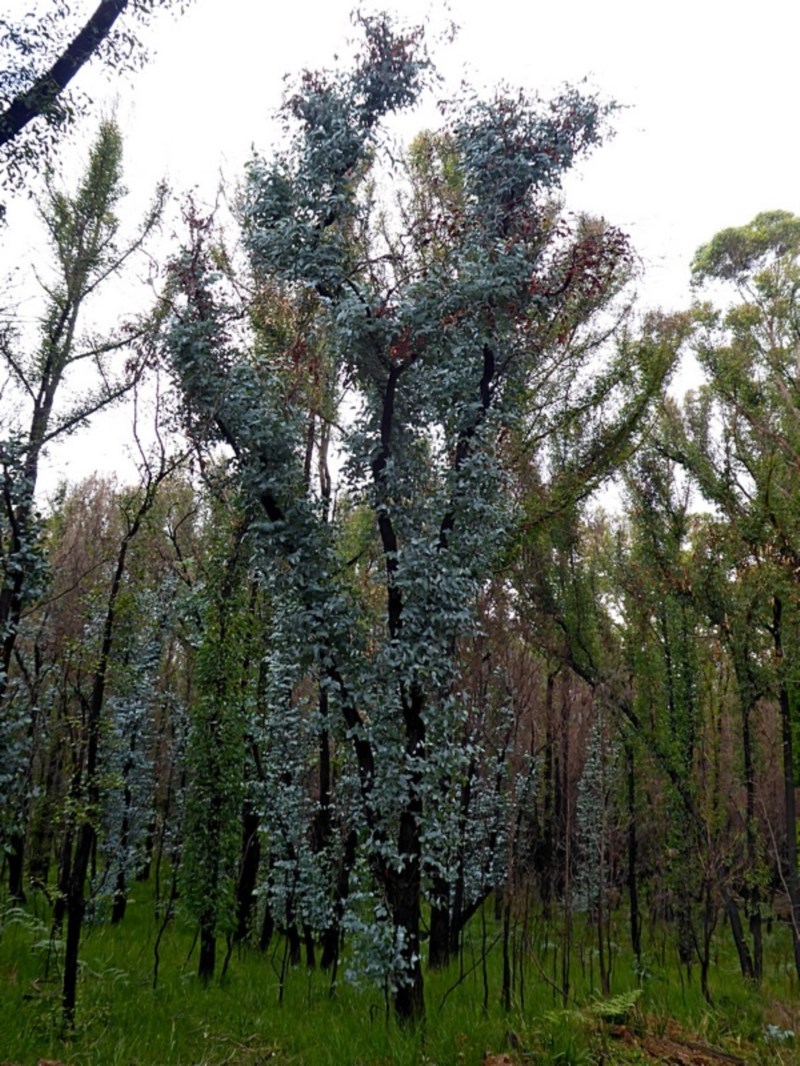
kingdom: Plantae
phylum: Tracheophyta
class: Magnoliopsida
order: Myrtales
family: Myrtaceae
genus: Eucalyptus
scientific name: Eucalyptus conspicua
